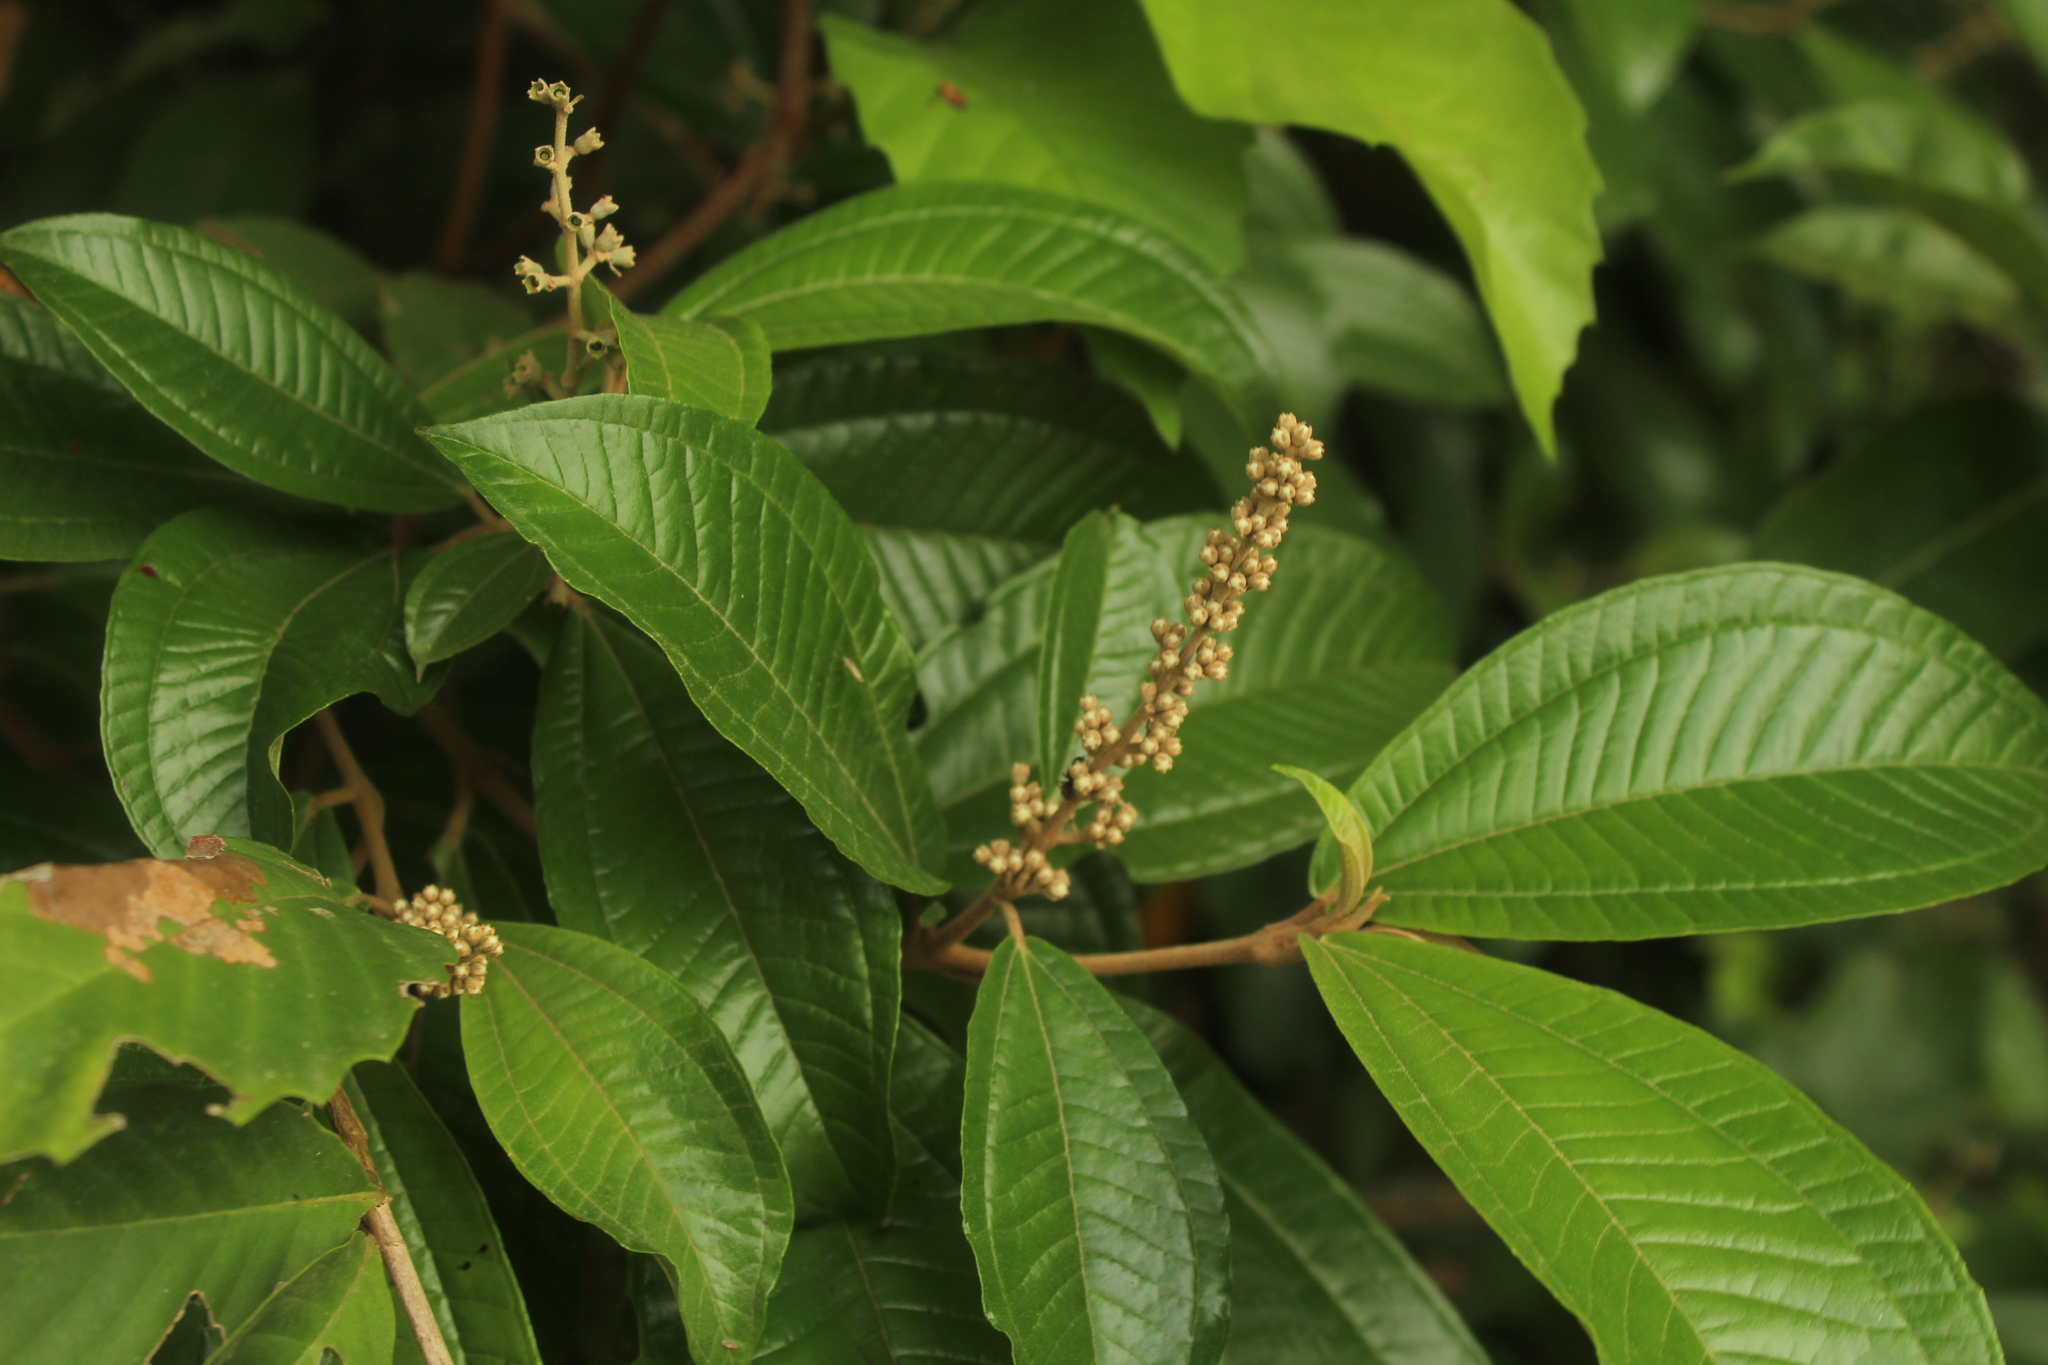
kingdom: Plantae
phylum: Tracheophyta
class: Magnoliopsida
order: Myrtales
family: Melastomataceae
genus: Miconia
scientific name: Miconia multispicata
